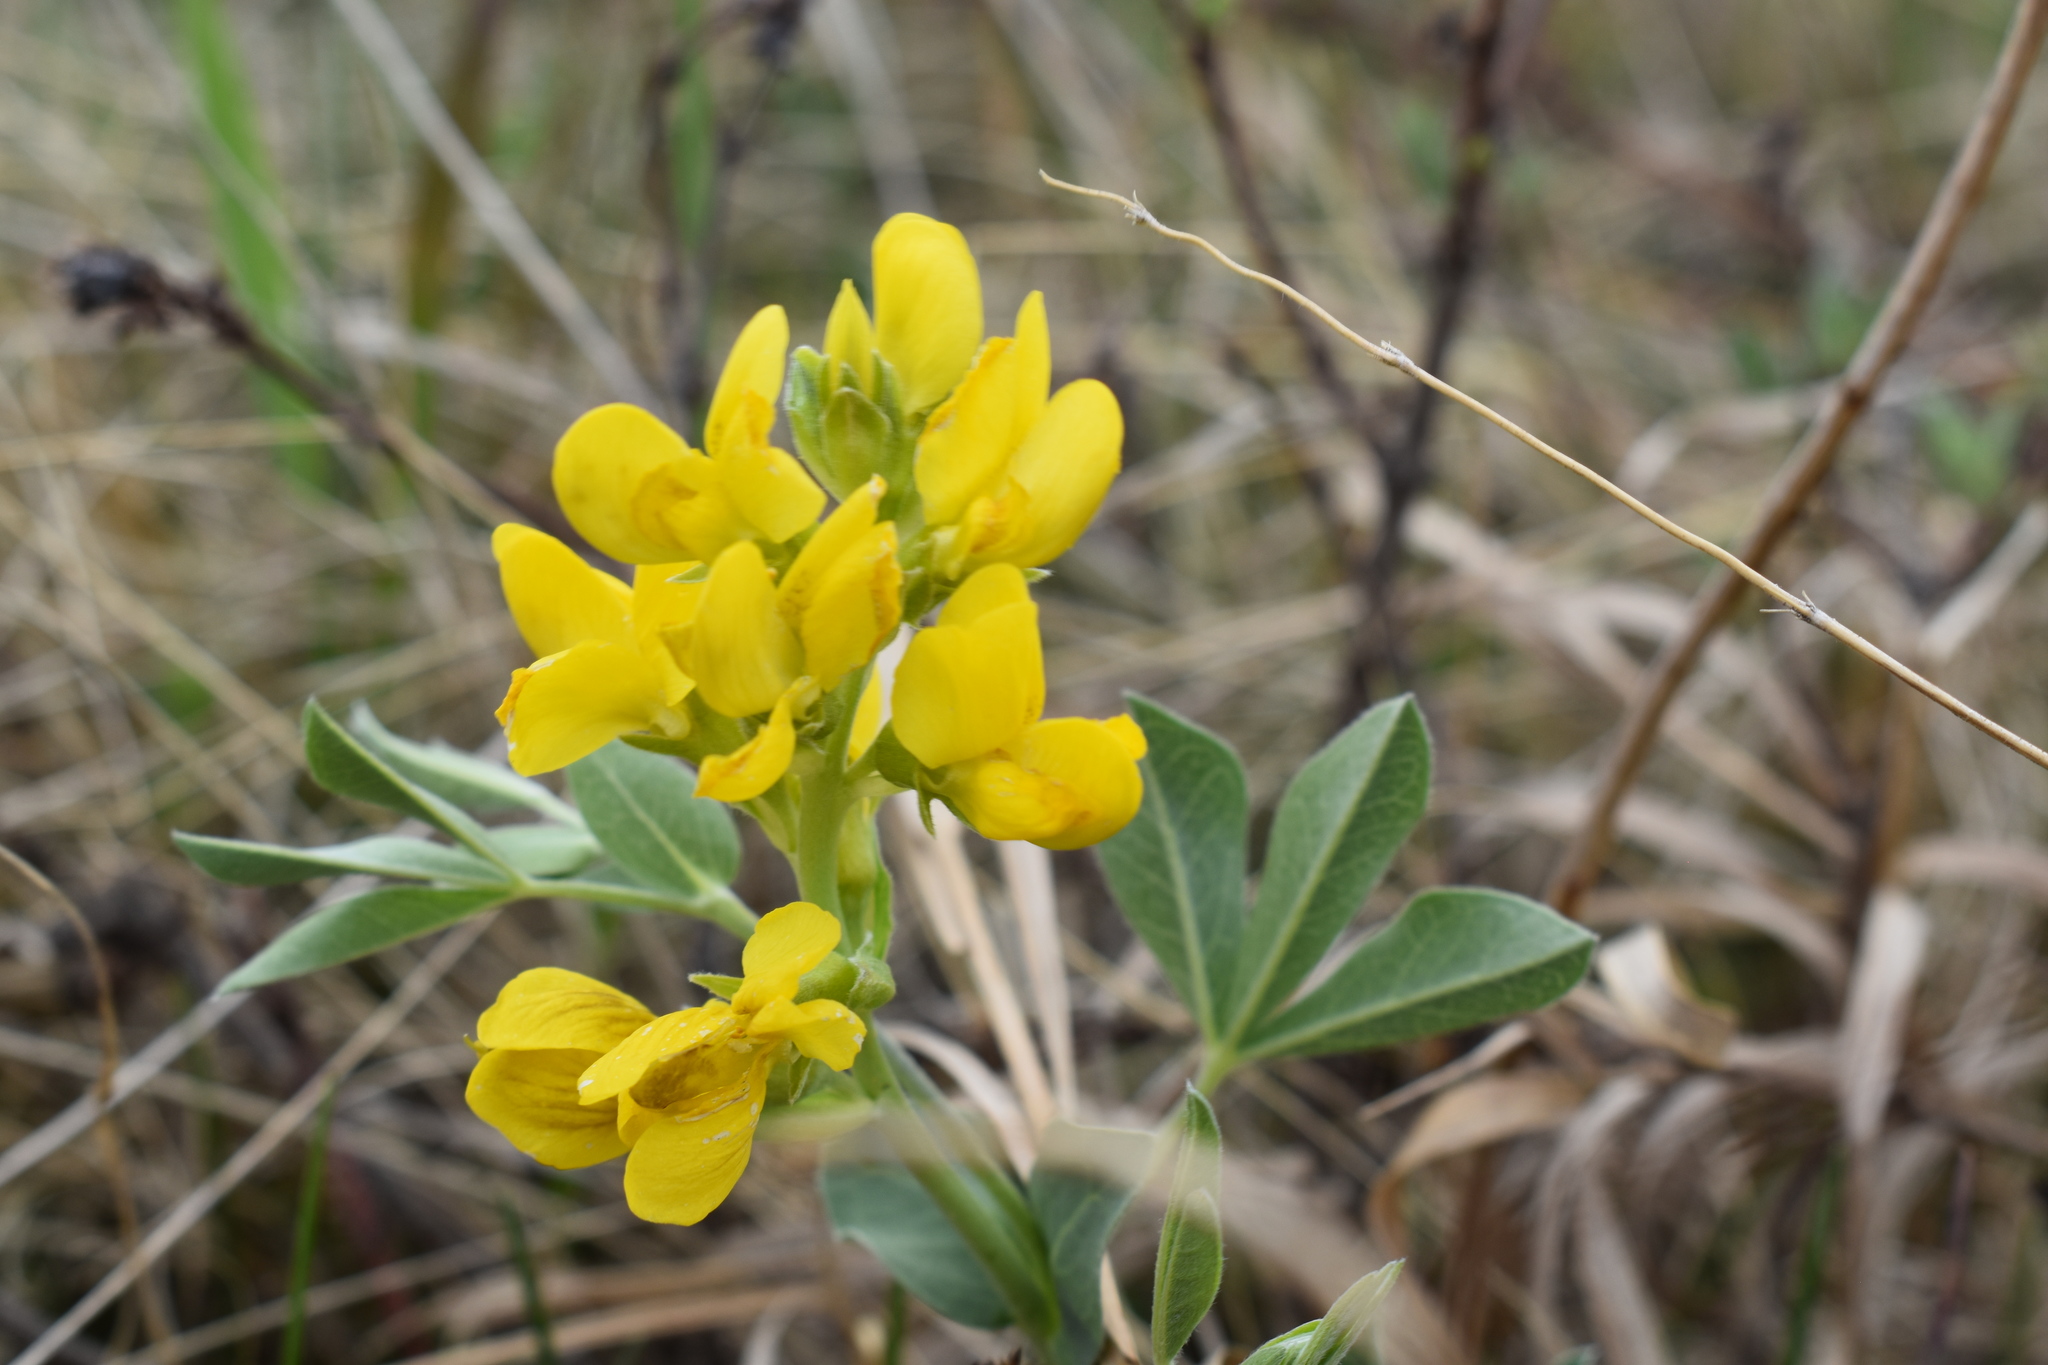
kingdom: Plantae
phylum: Tracheophyta
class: Magnoliopsida
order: Fabales
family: Fabaceae
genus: Thermopsis
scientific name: Thermopsis rhombifolia
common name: Circle-pod-pea
